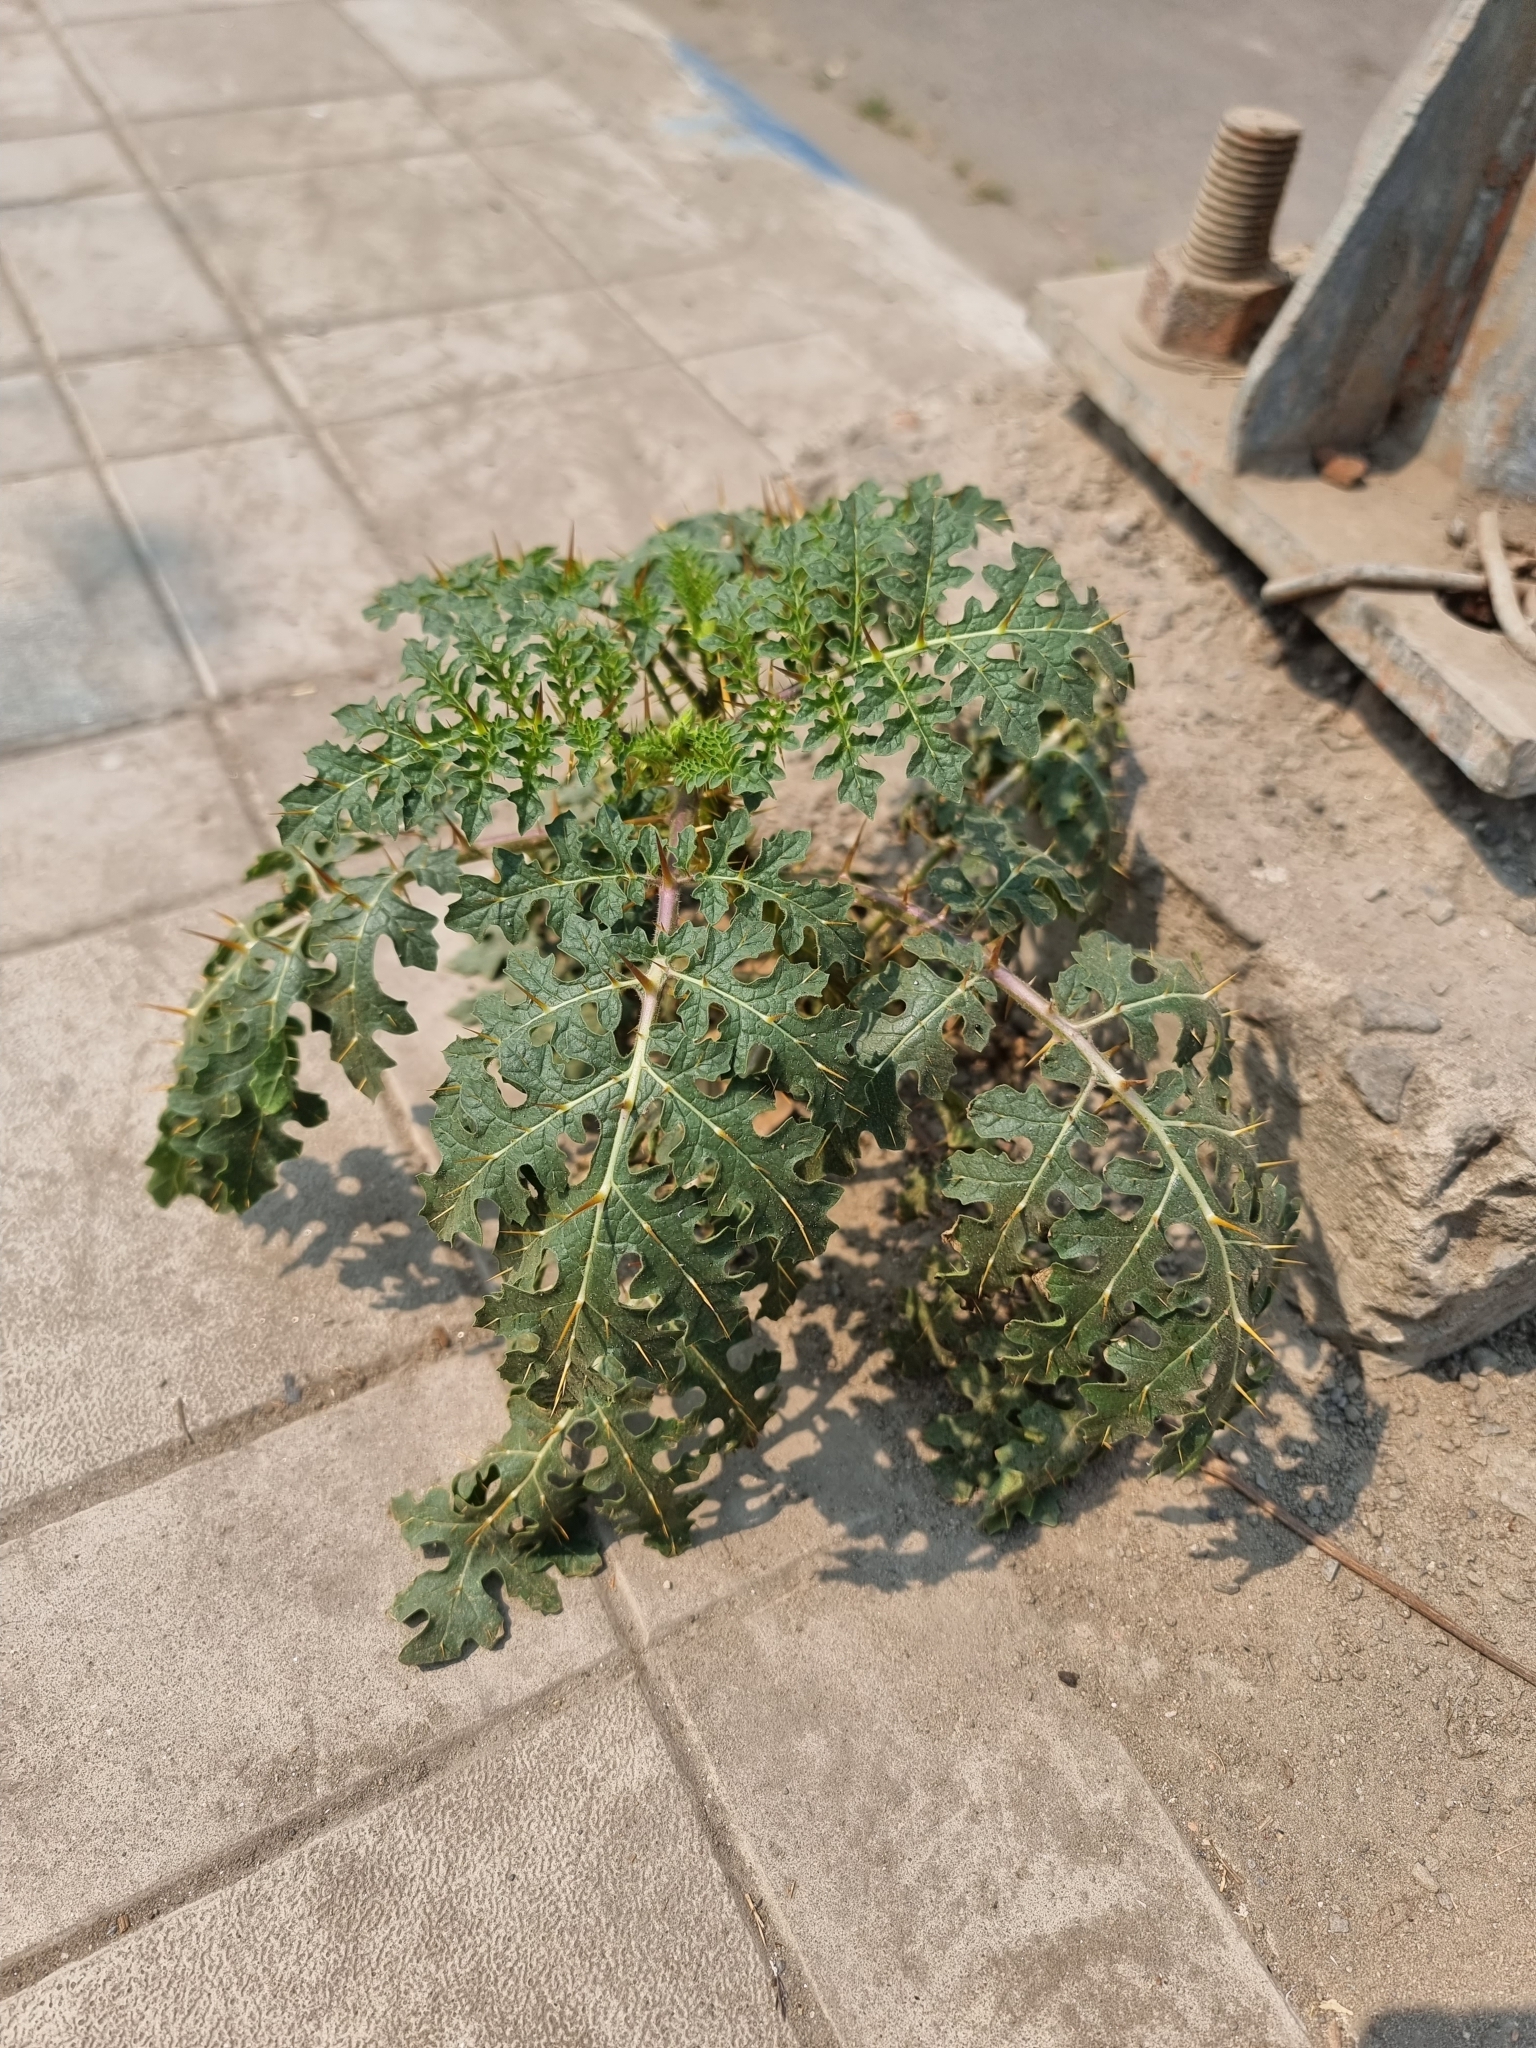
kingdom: Plantae
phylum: Tracheophyta
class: Magnoliopsida
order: Solanales
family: Solanaceae
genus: Solanum
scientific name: Solanum sisymbriifolium
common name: Red buffalo-bur
